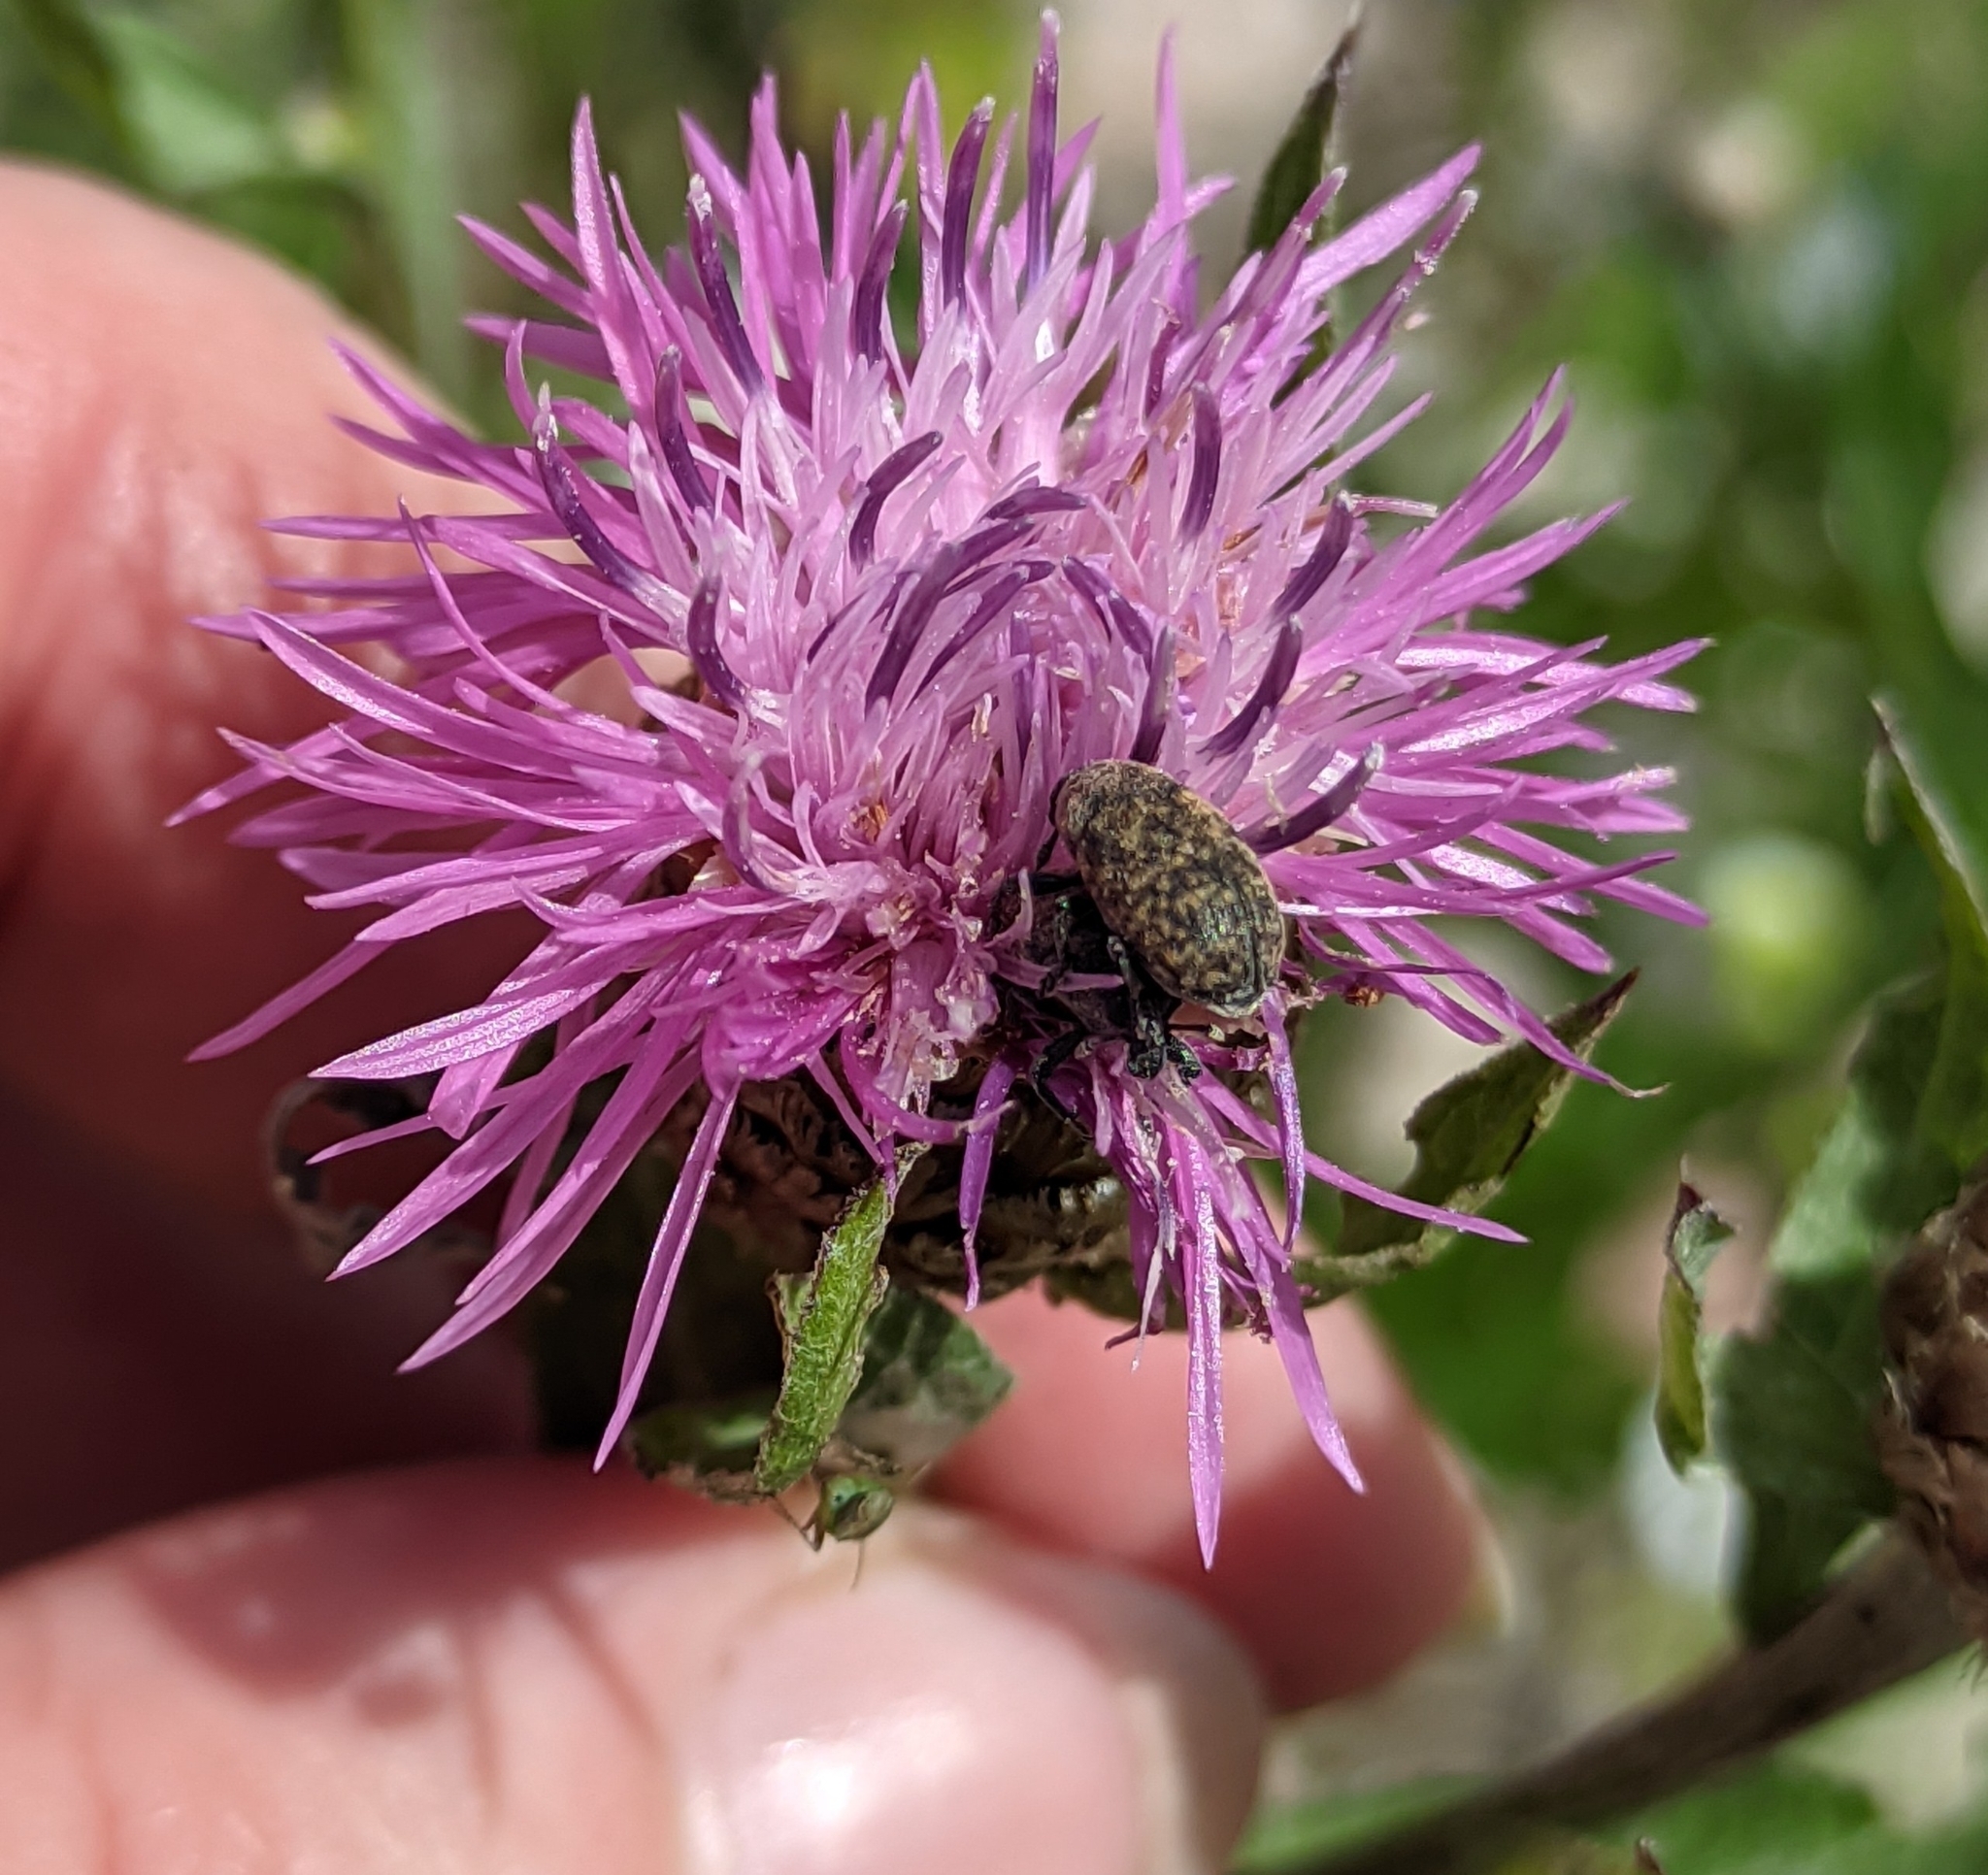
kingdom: Animalia
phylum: Arthropoda
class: Insecta
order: Coleoptera
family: Curculionidae
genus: Larinus
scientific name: Larinus obtusus
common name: Weevil
